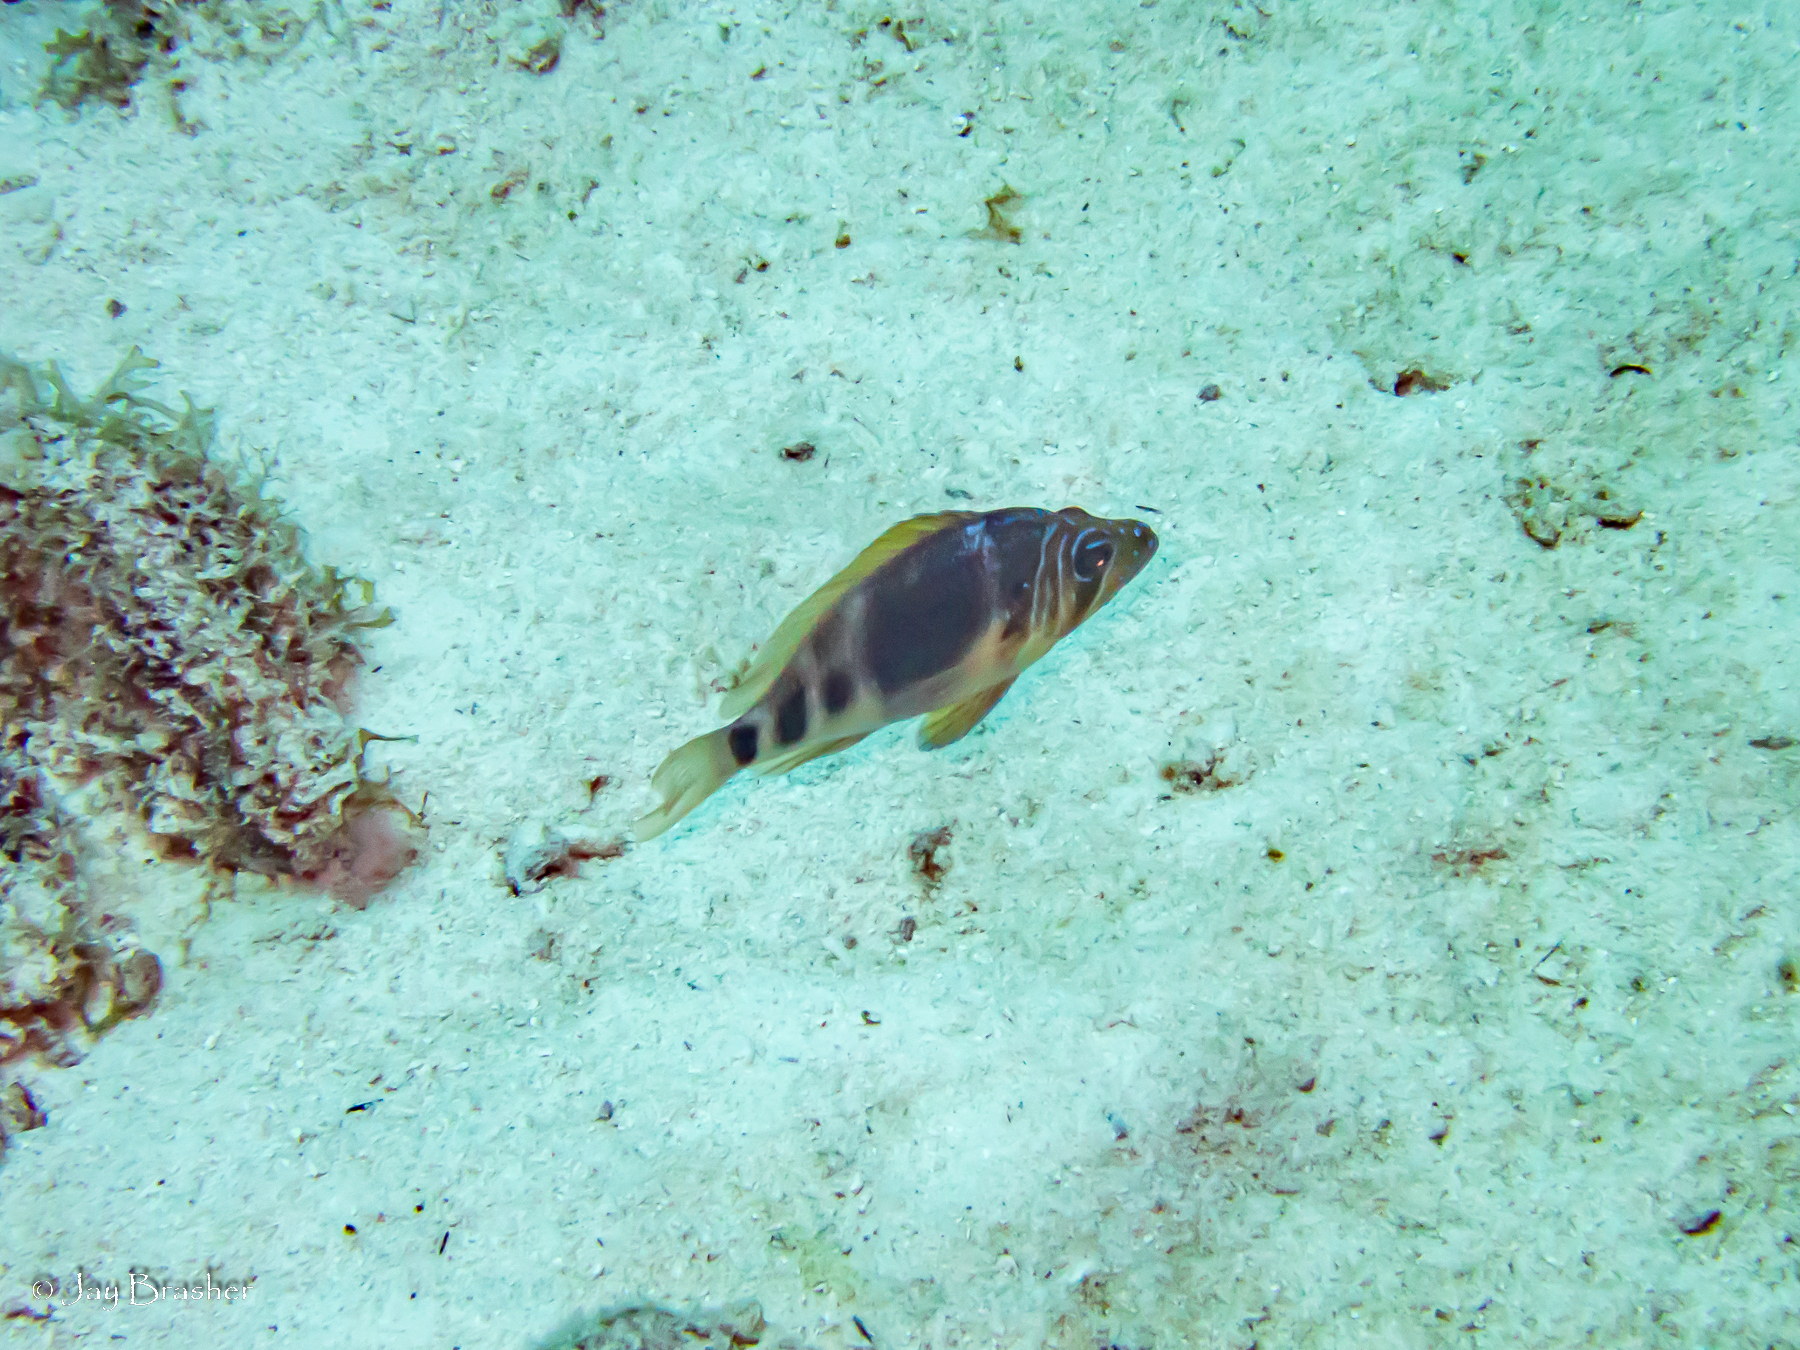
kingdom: Animalia
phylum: Chordata
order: Perciformes
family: Serranidae
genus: Hypoplectrus
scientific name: Hypoplectrus puella
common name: Barred hamlet
